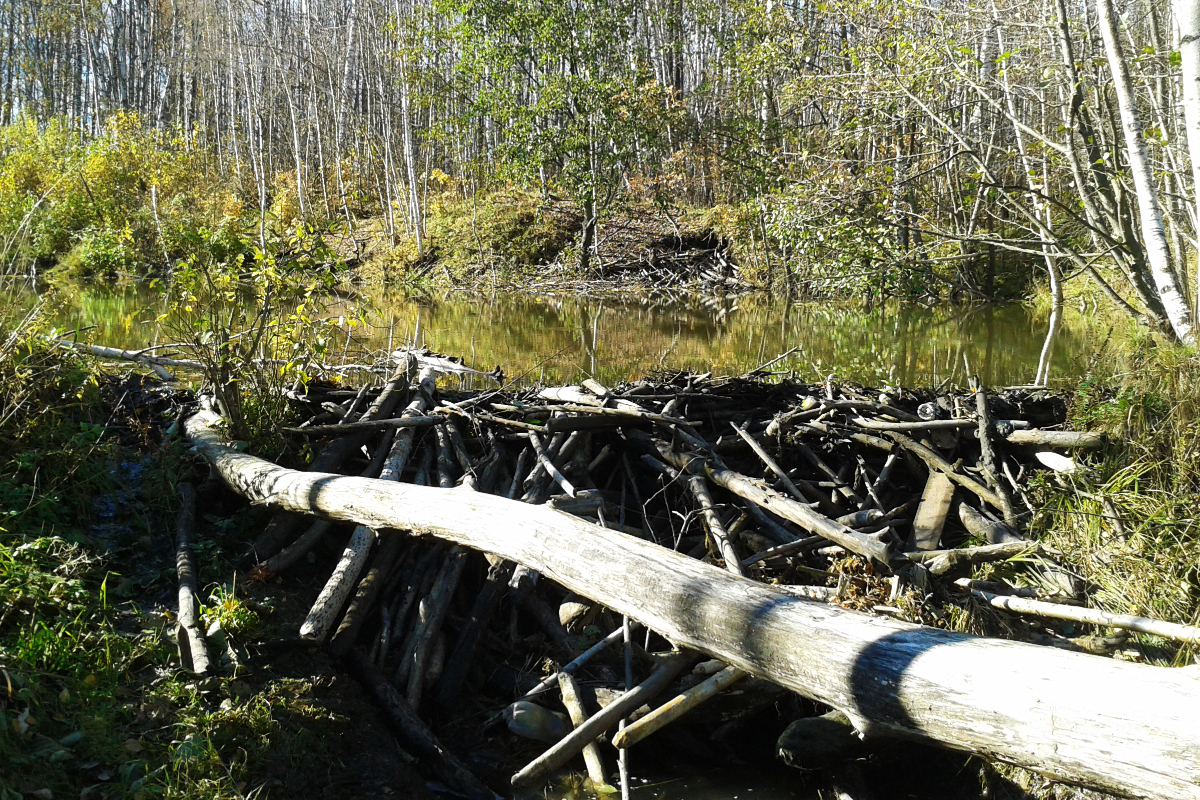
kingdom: Animalia
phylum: Chordata
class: Mammalia
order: Rodentia
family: Castoridae
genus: Castor
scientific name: Castor fiber
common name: Eurasian beaver
